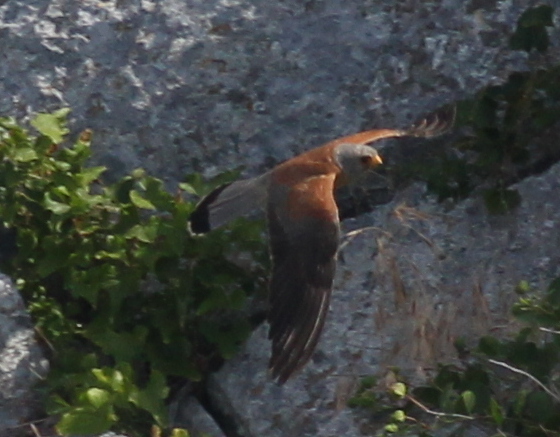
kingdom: Animalia
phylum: Chordata
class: Aves
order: Falconiformes
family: Falconidae
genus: Falco
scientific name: Falco naumanni
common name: Lesser kestrel
